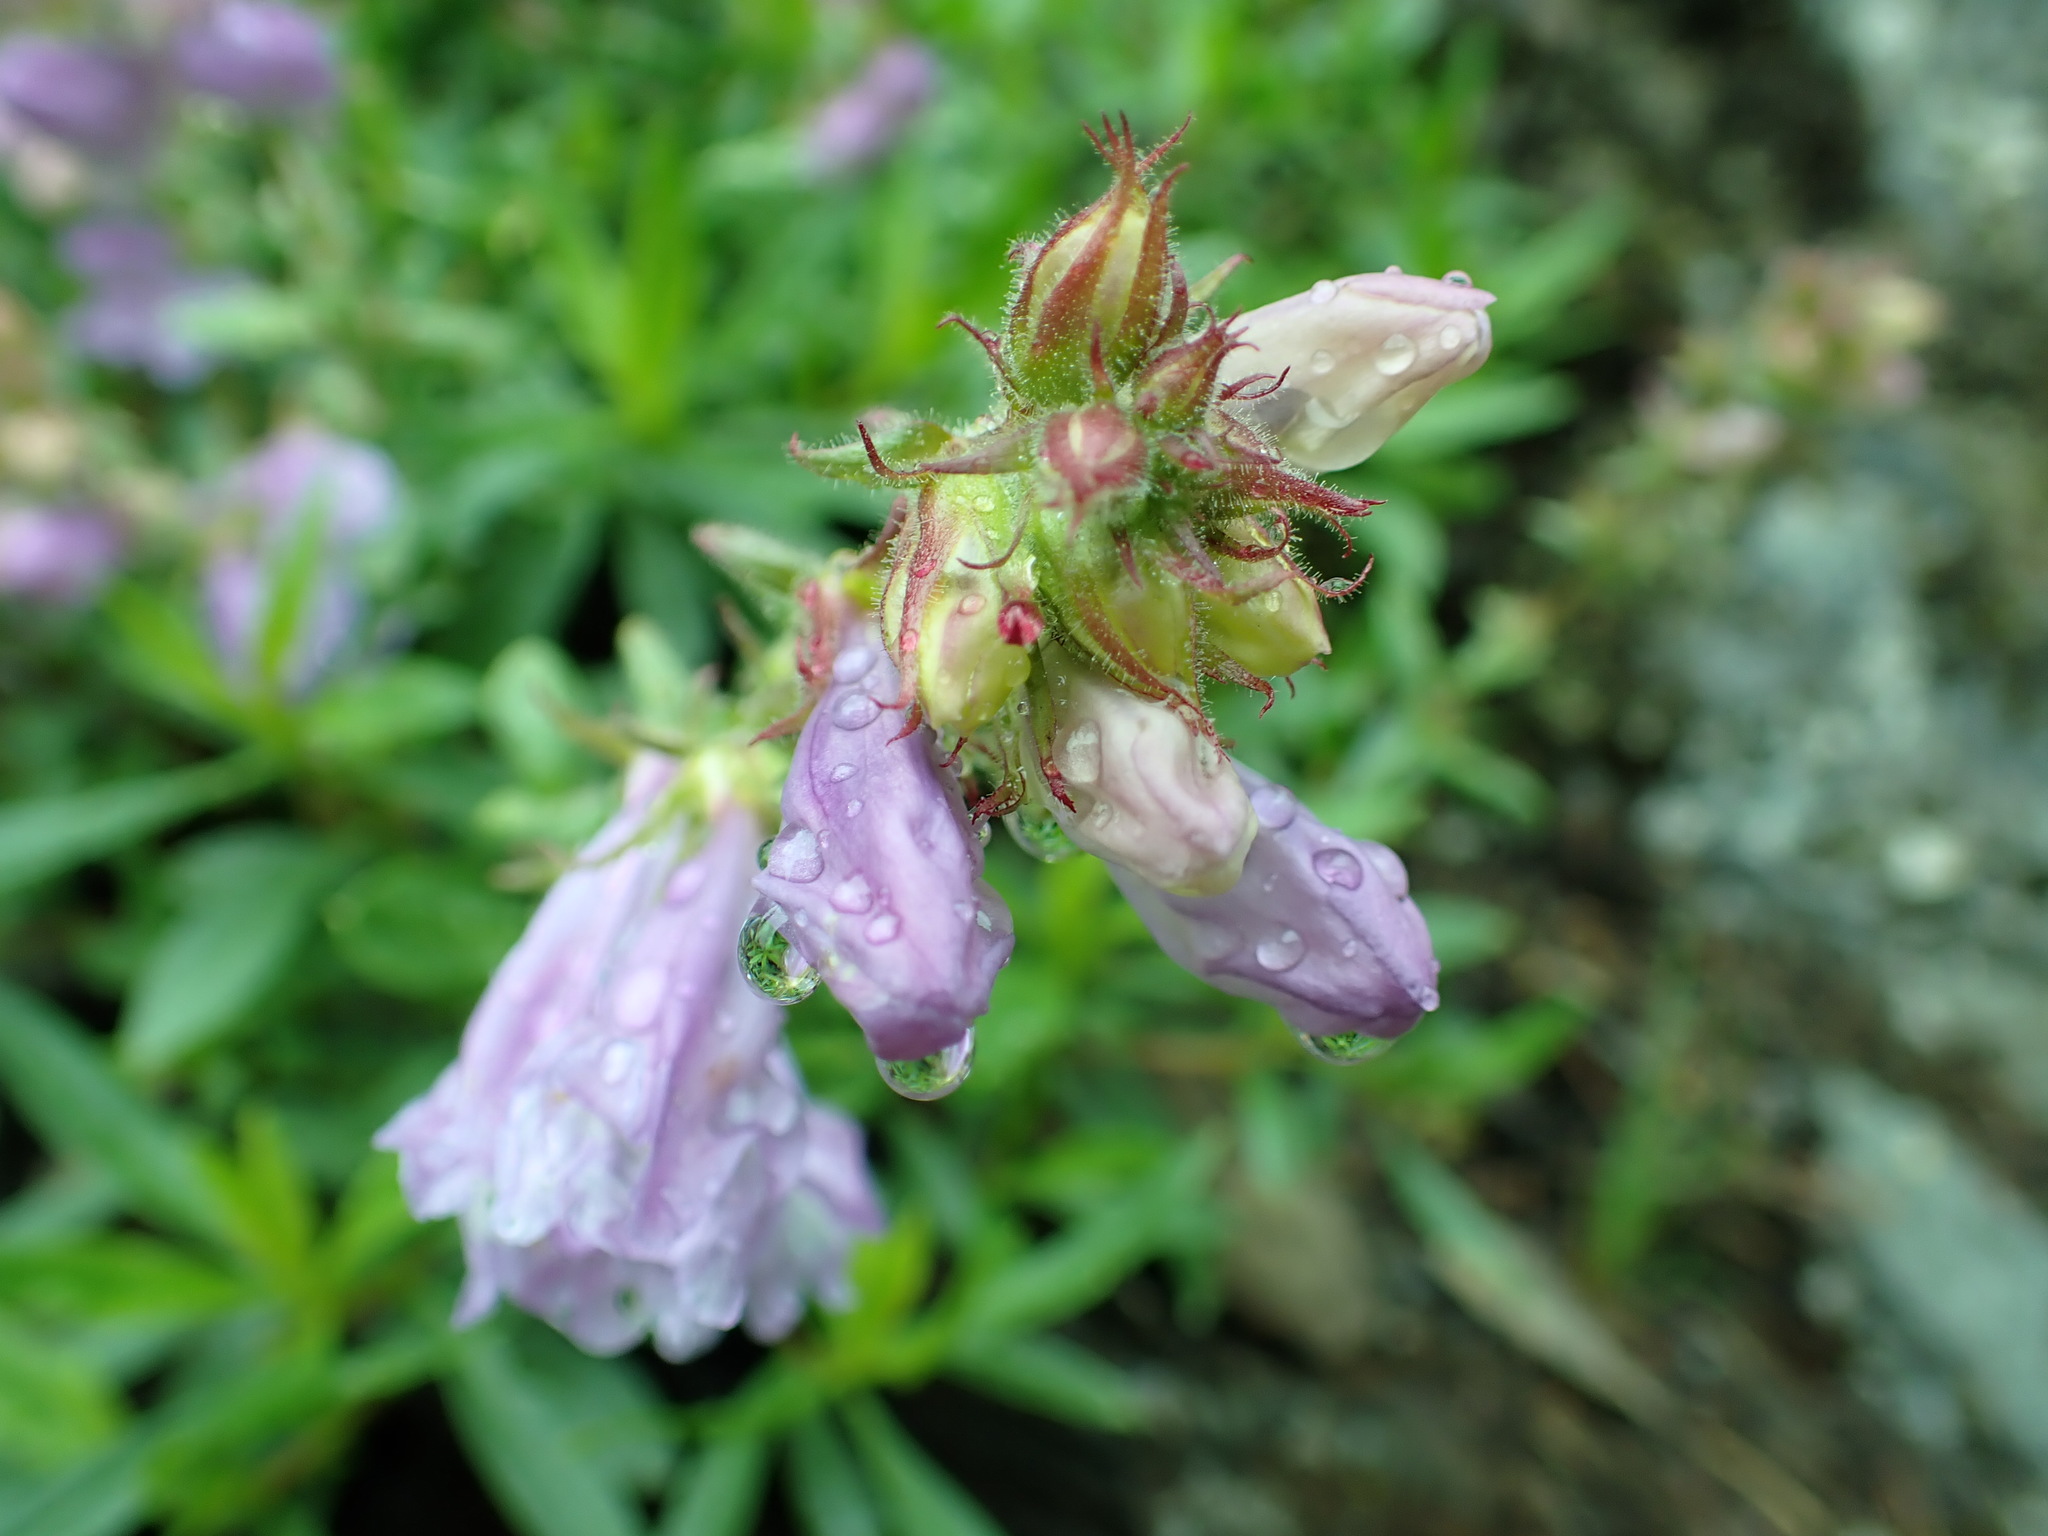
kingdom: Plantae
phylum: Tracheophyta
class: Magnoliopsida
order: Lamiales
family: Plantaginaceae
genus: Penstemon
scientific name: Penstemon fruticosus
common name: Bush penstemon
